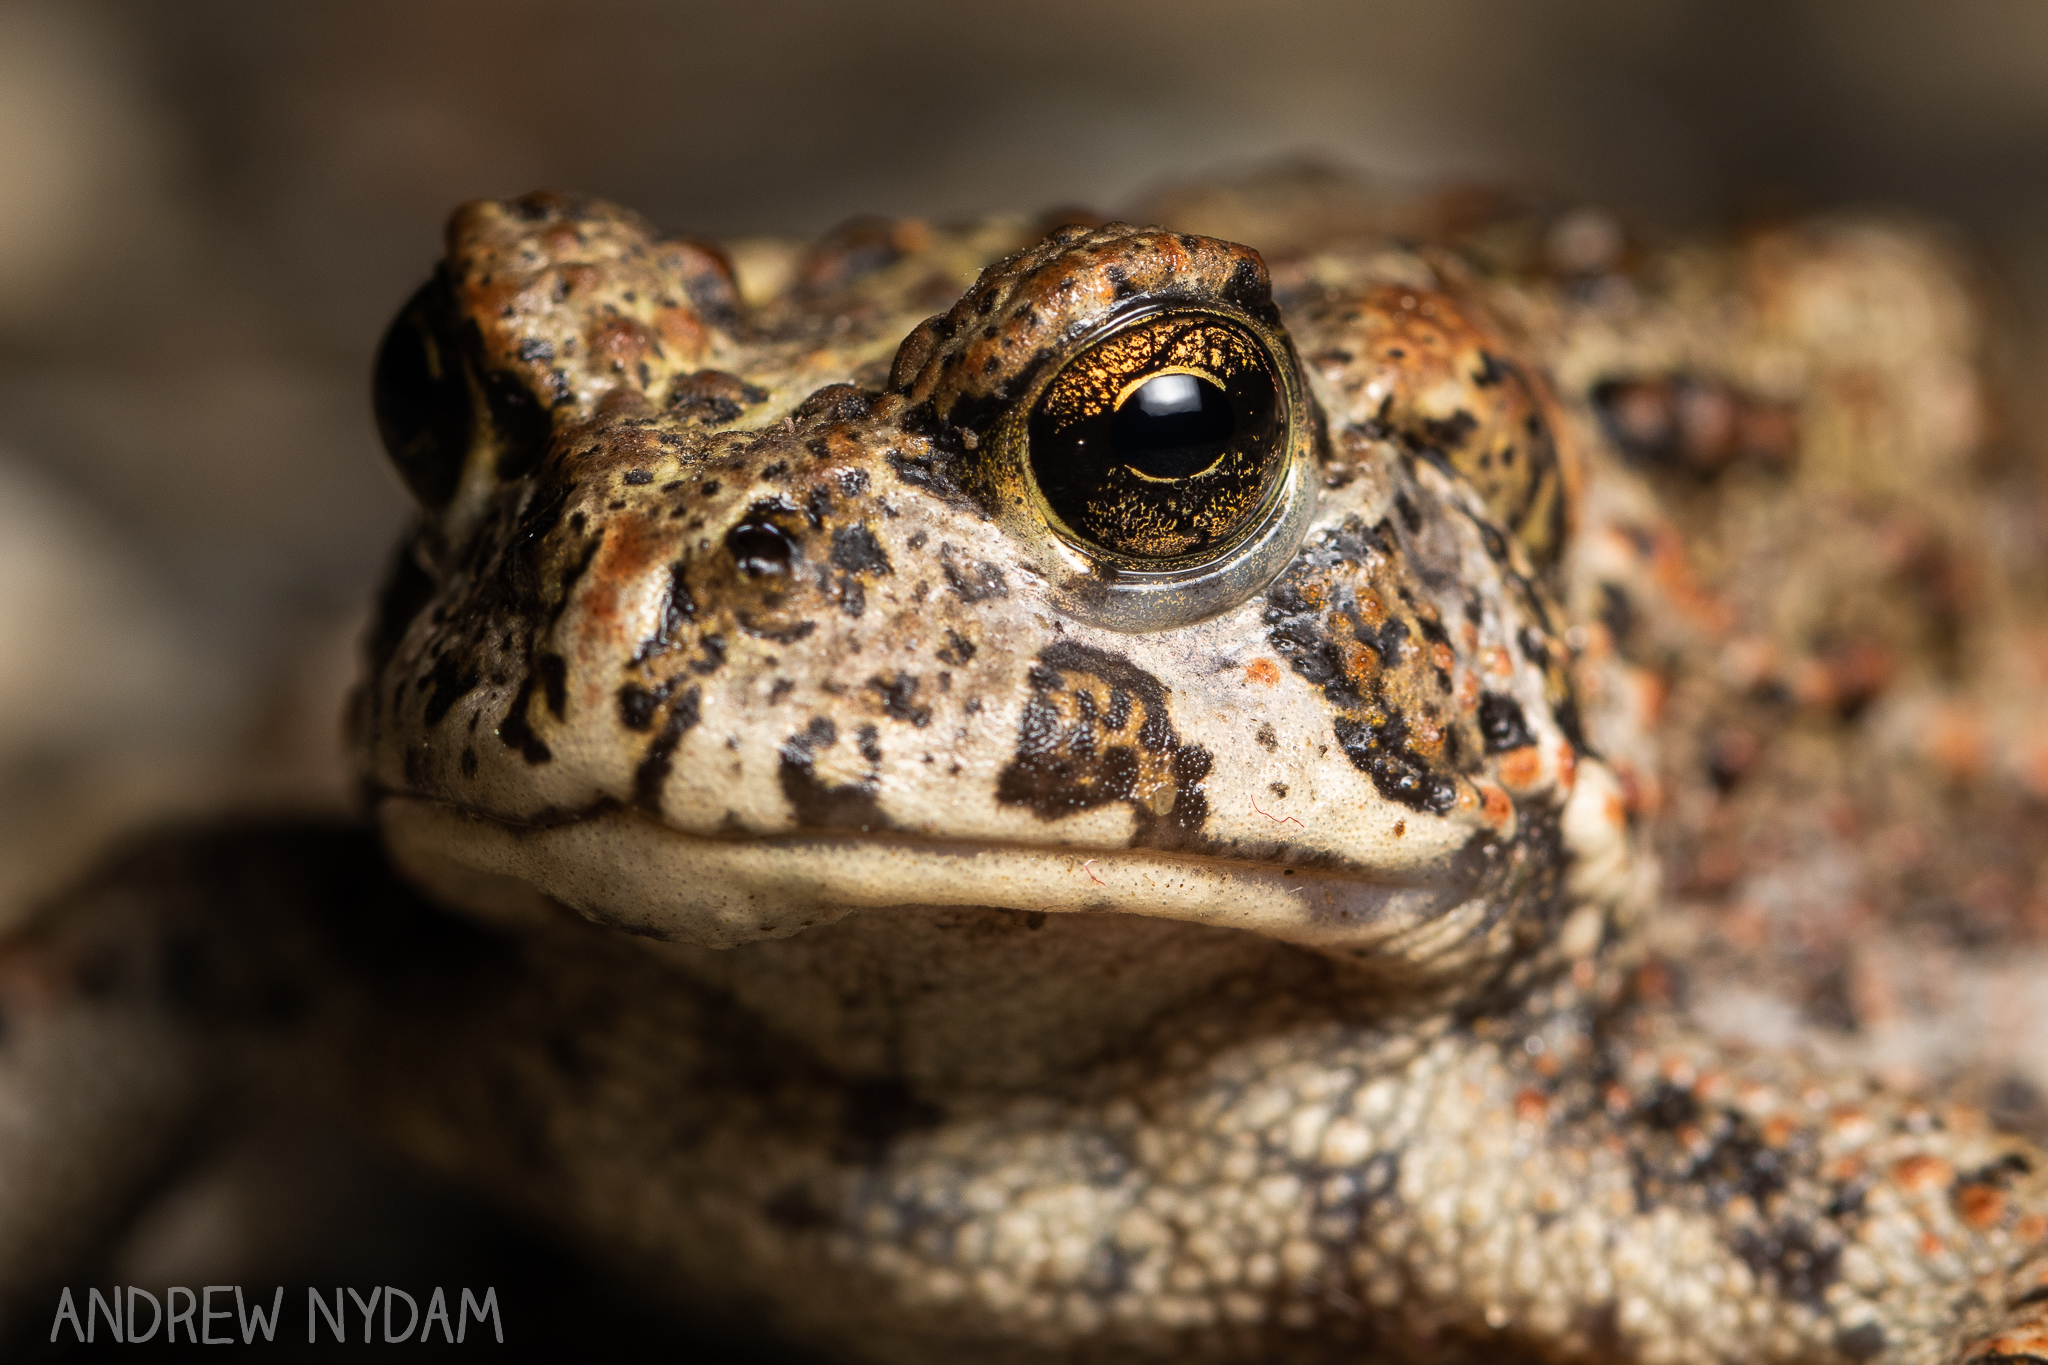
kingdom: Animalia
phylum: Chordata
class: Amphibia
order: Anura
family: Bufonidae
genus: Anaxyrus
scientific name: Anaxyrus boreas
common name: Western toad
